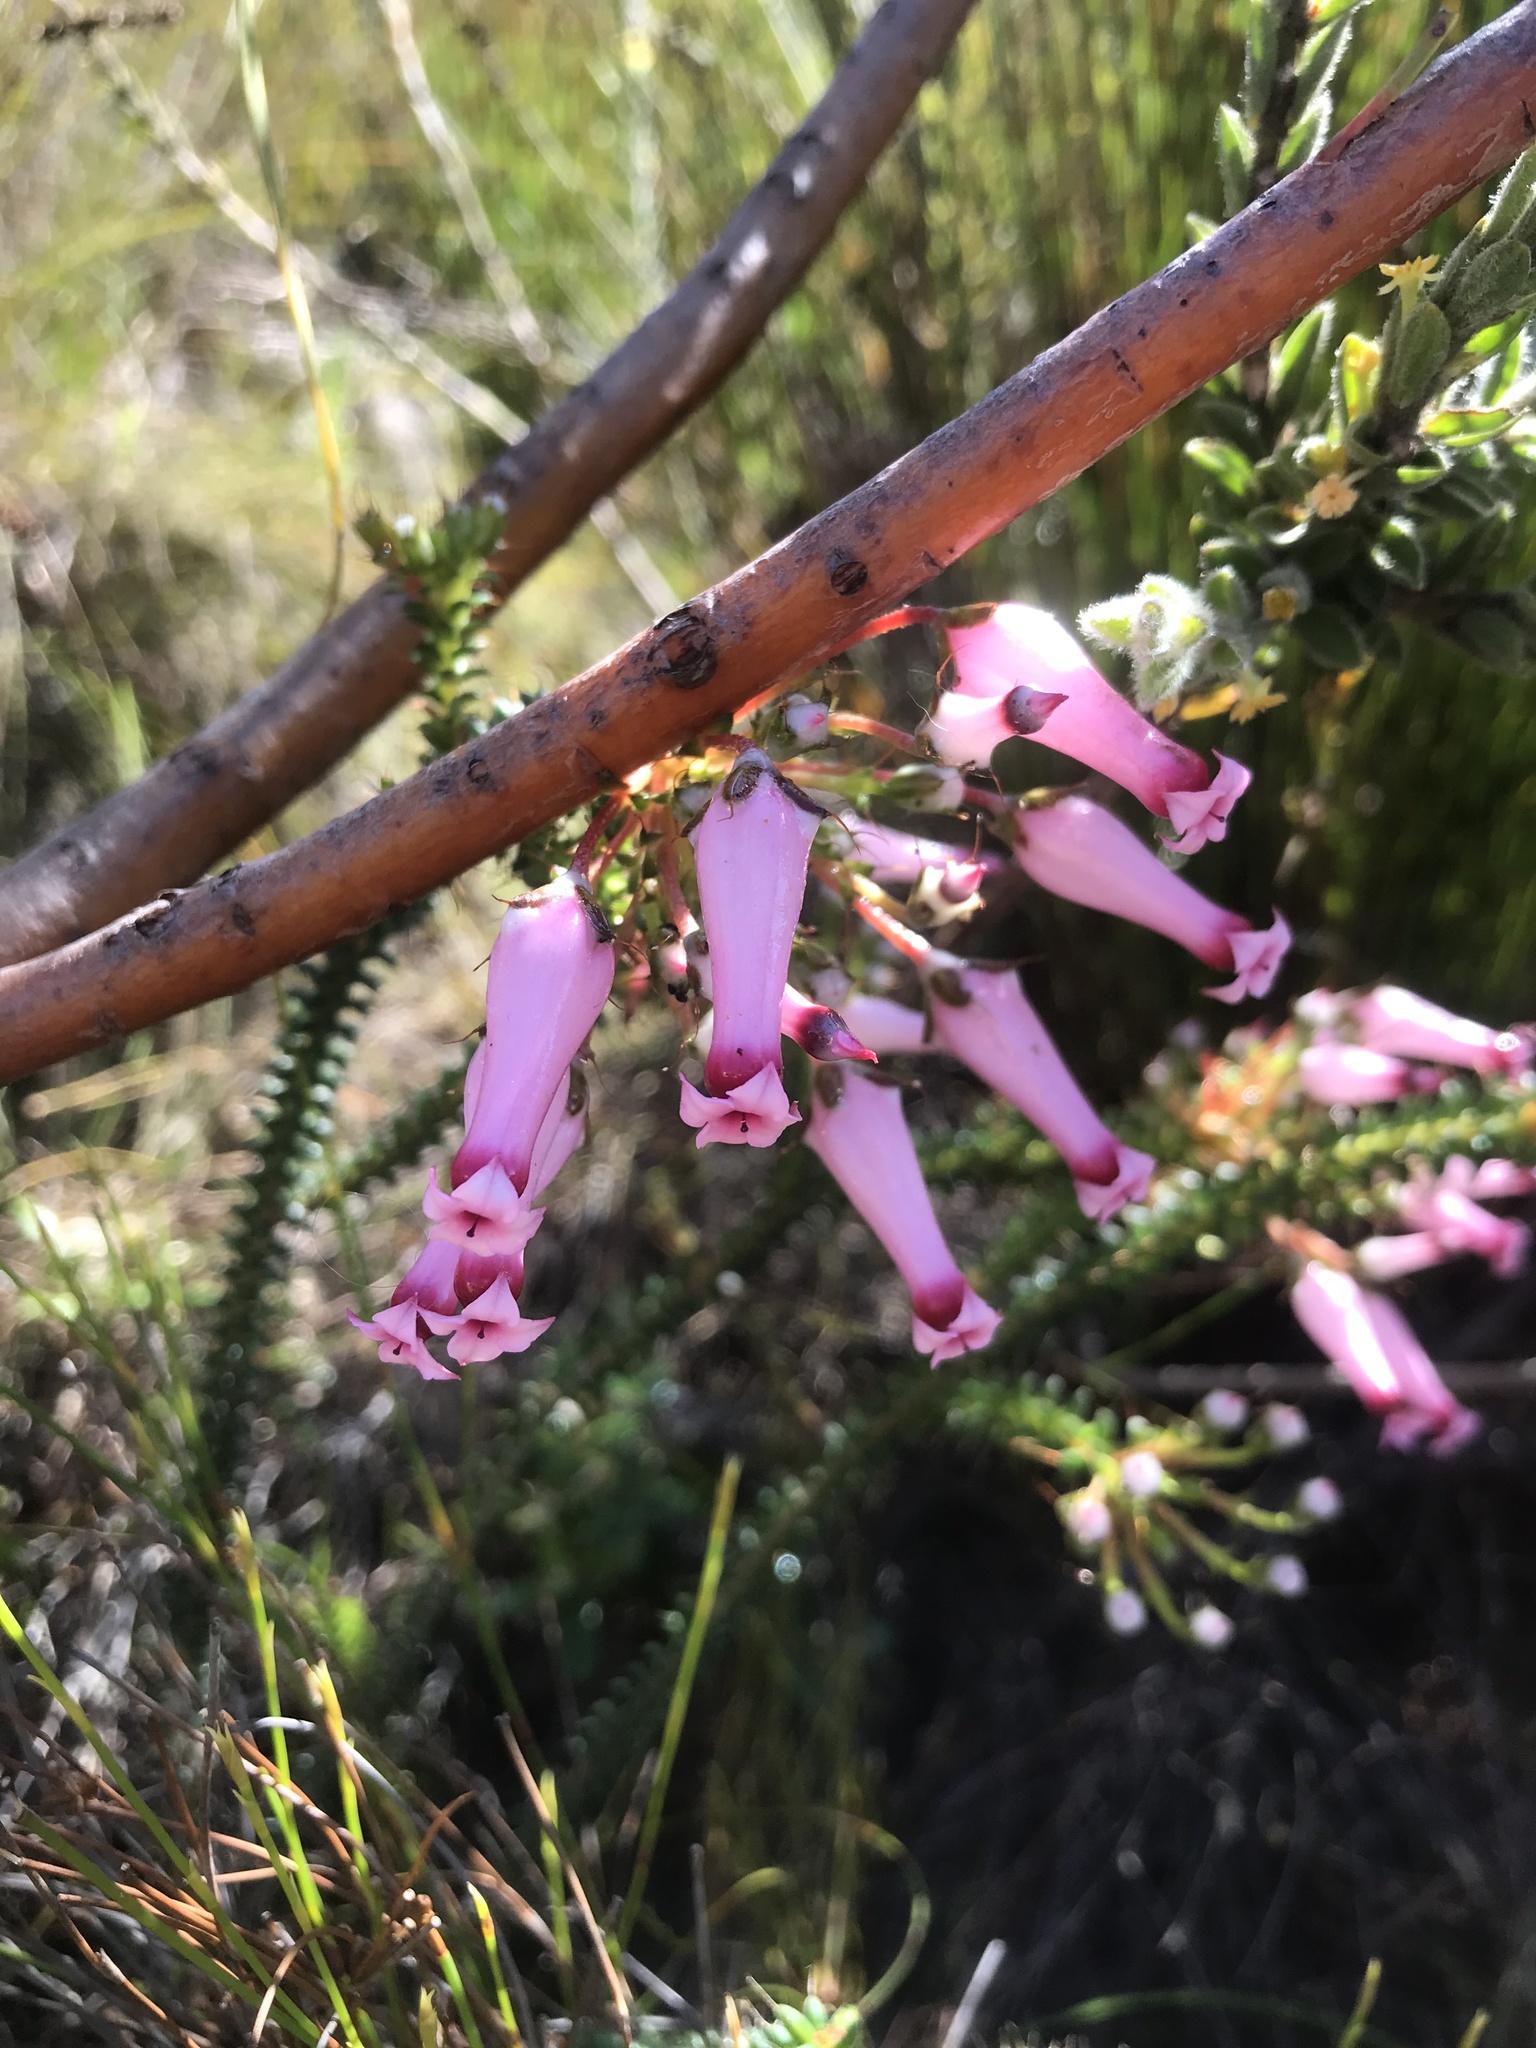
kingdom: Plantae
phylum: Tracheophyta
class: Magnoliopsida
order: Ericales
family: Ericaceae
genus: Erica
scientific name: Erica retorta
